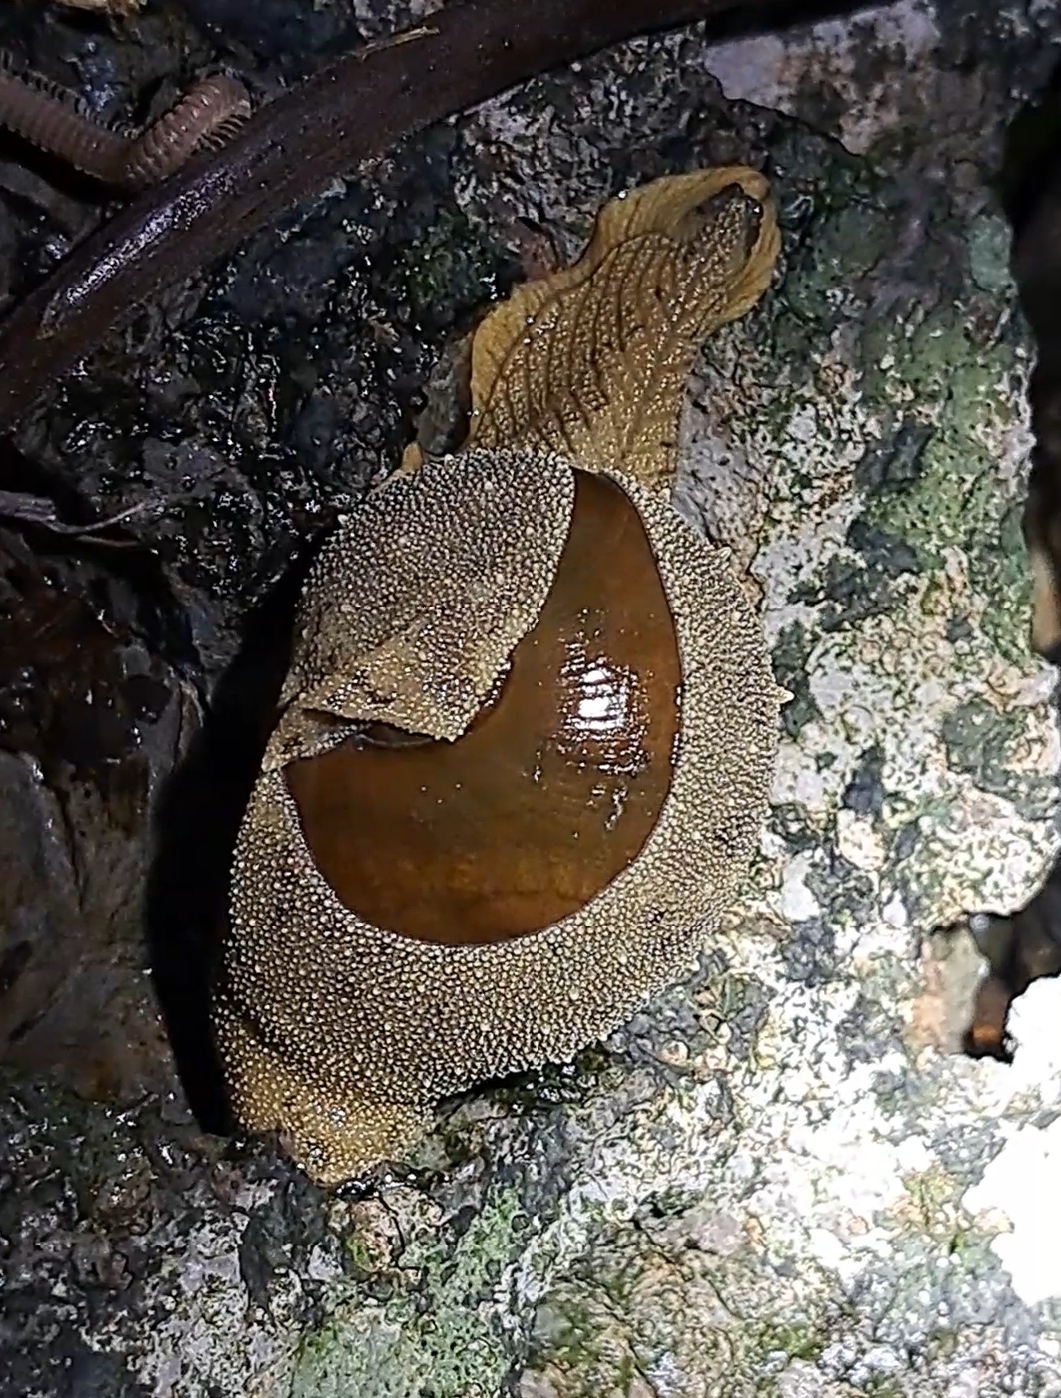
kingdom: Animalia
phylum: Mollusca
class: Gastropoda
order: Stylommatophora
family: Ariophantidae
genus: Megaustenia
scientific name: Megaustenia imperator
